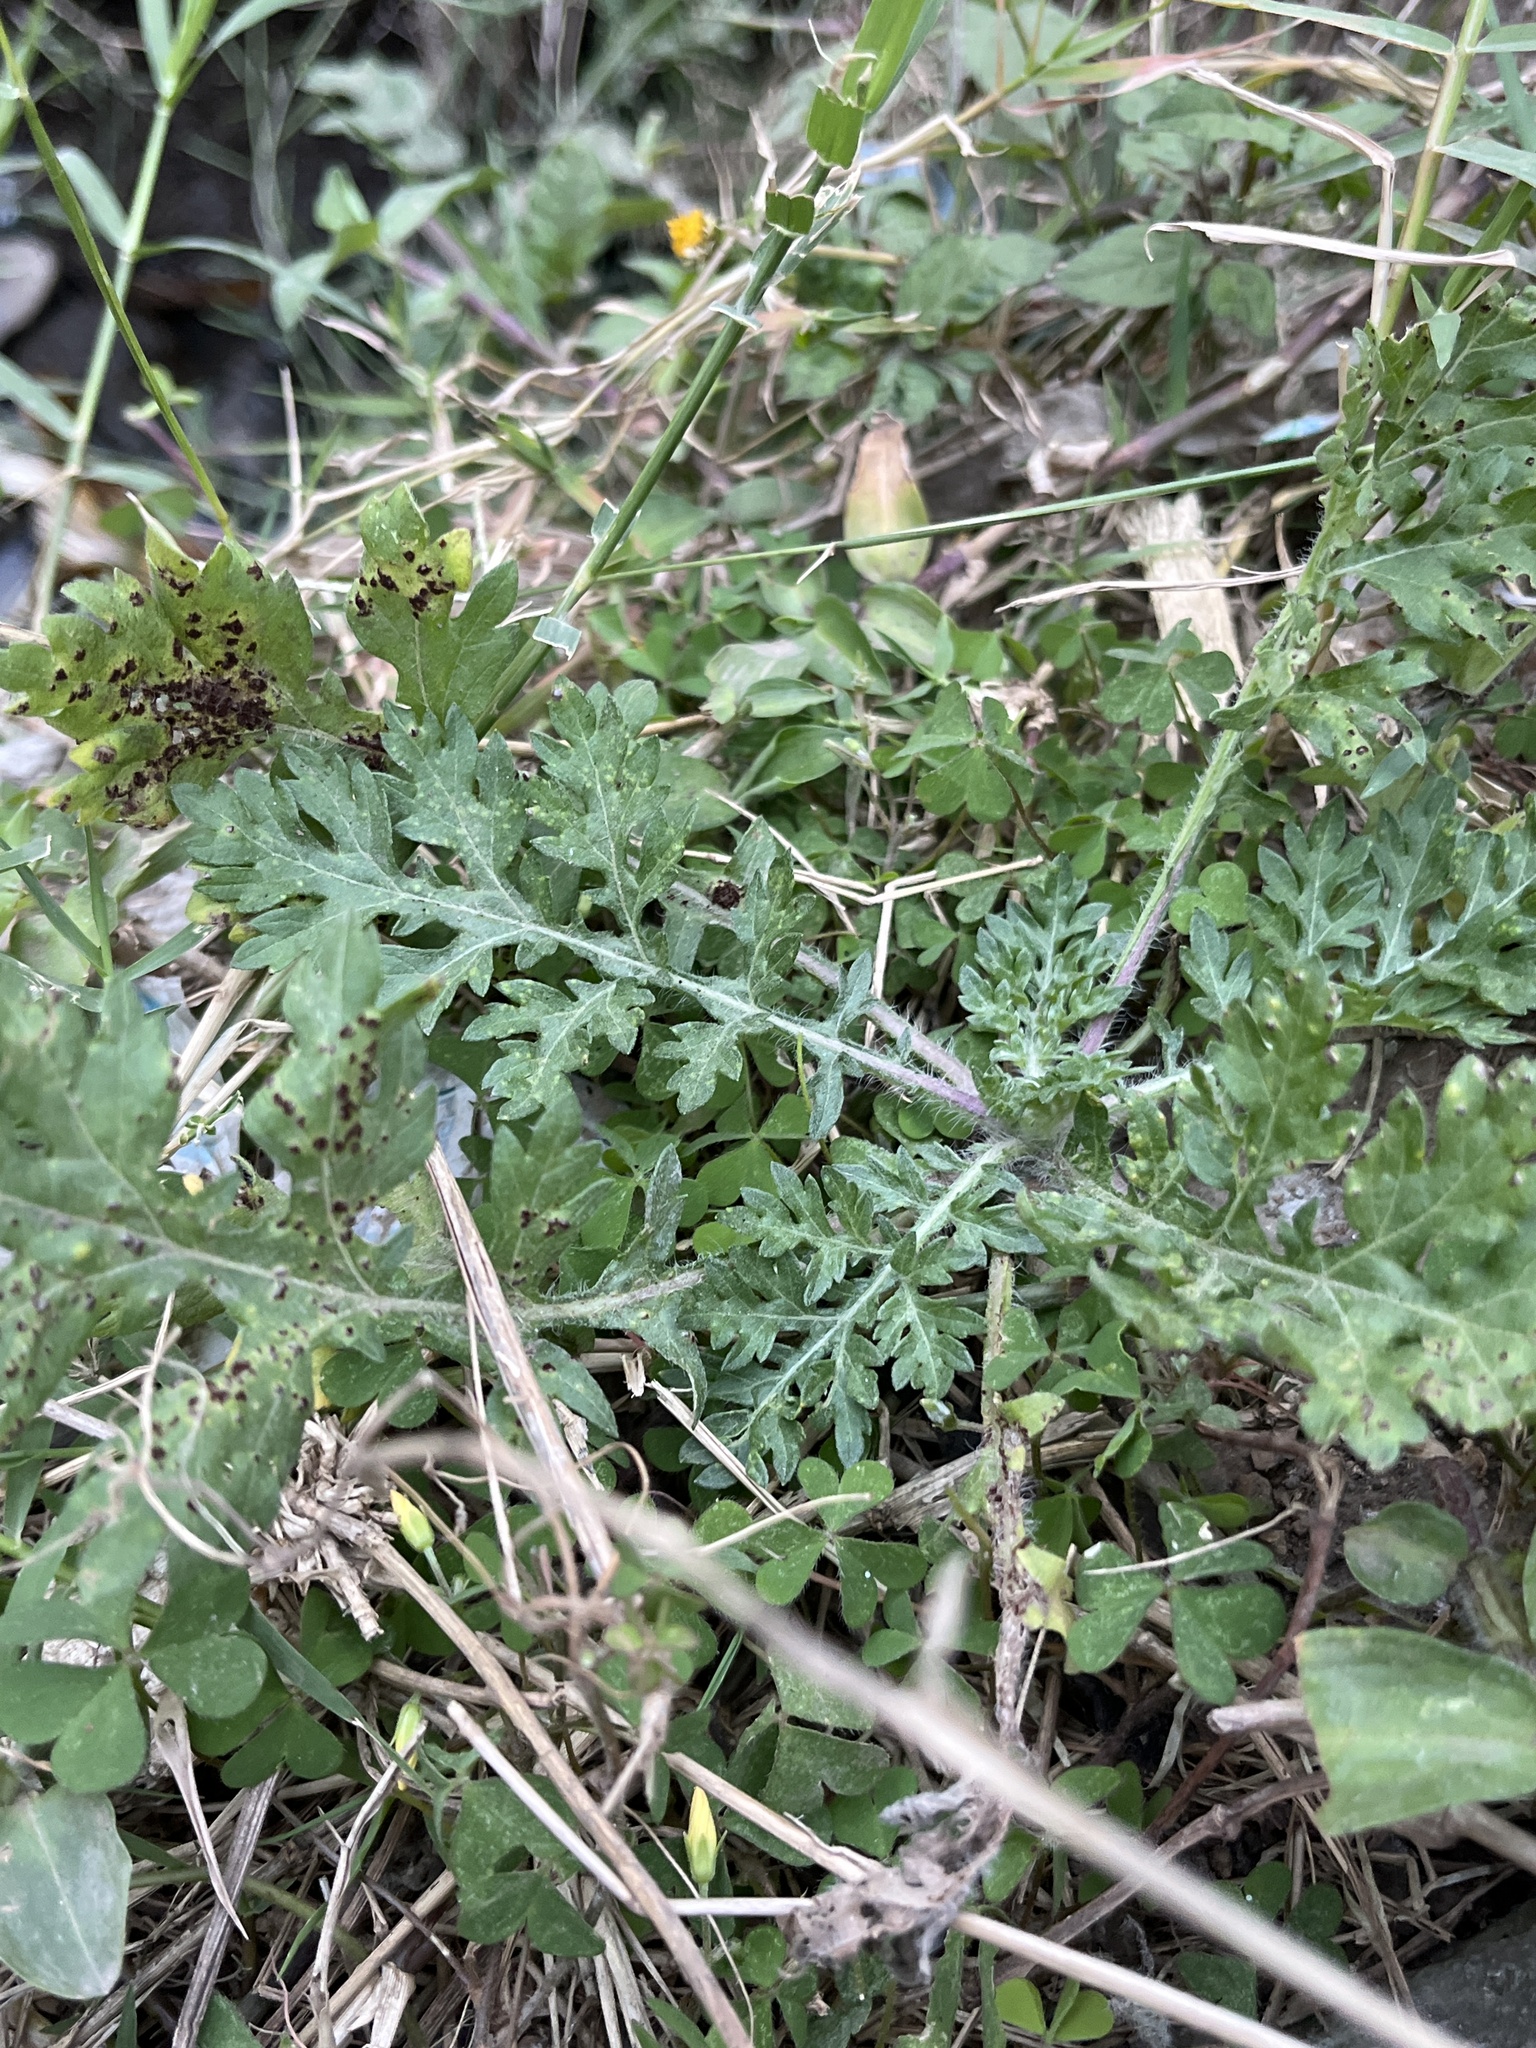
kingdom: Plantae
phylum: Tracheophyta
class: Magnoliopsida
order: Asterales
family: Asteraceae
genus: Parthenium
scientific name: Parthenium hysterophorus
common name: Santa maria feverfew
